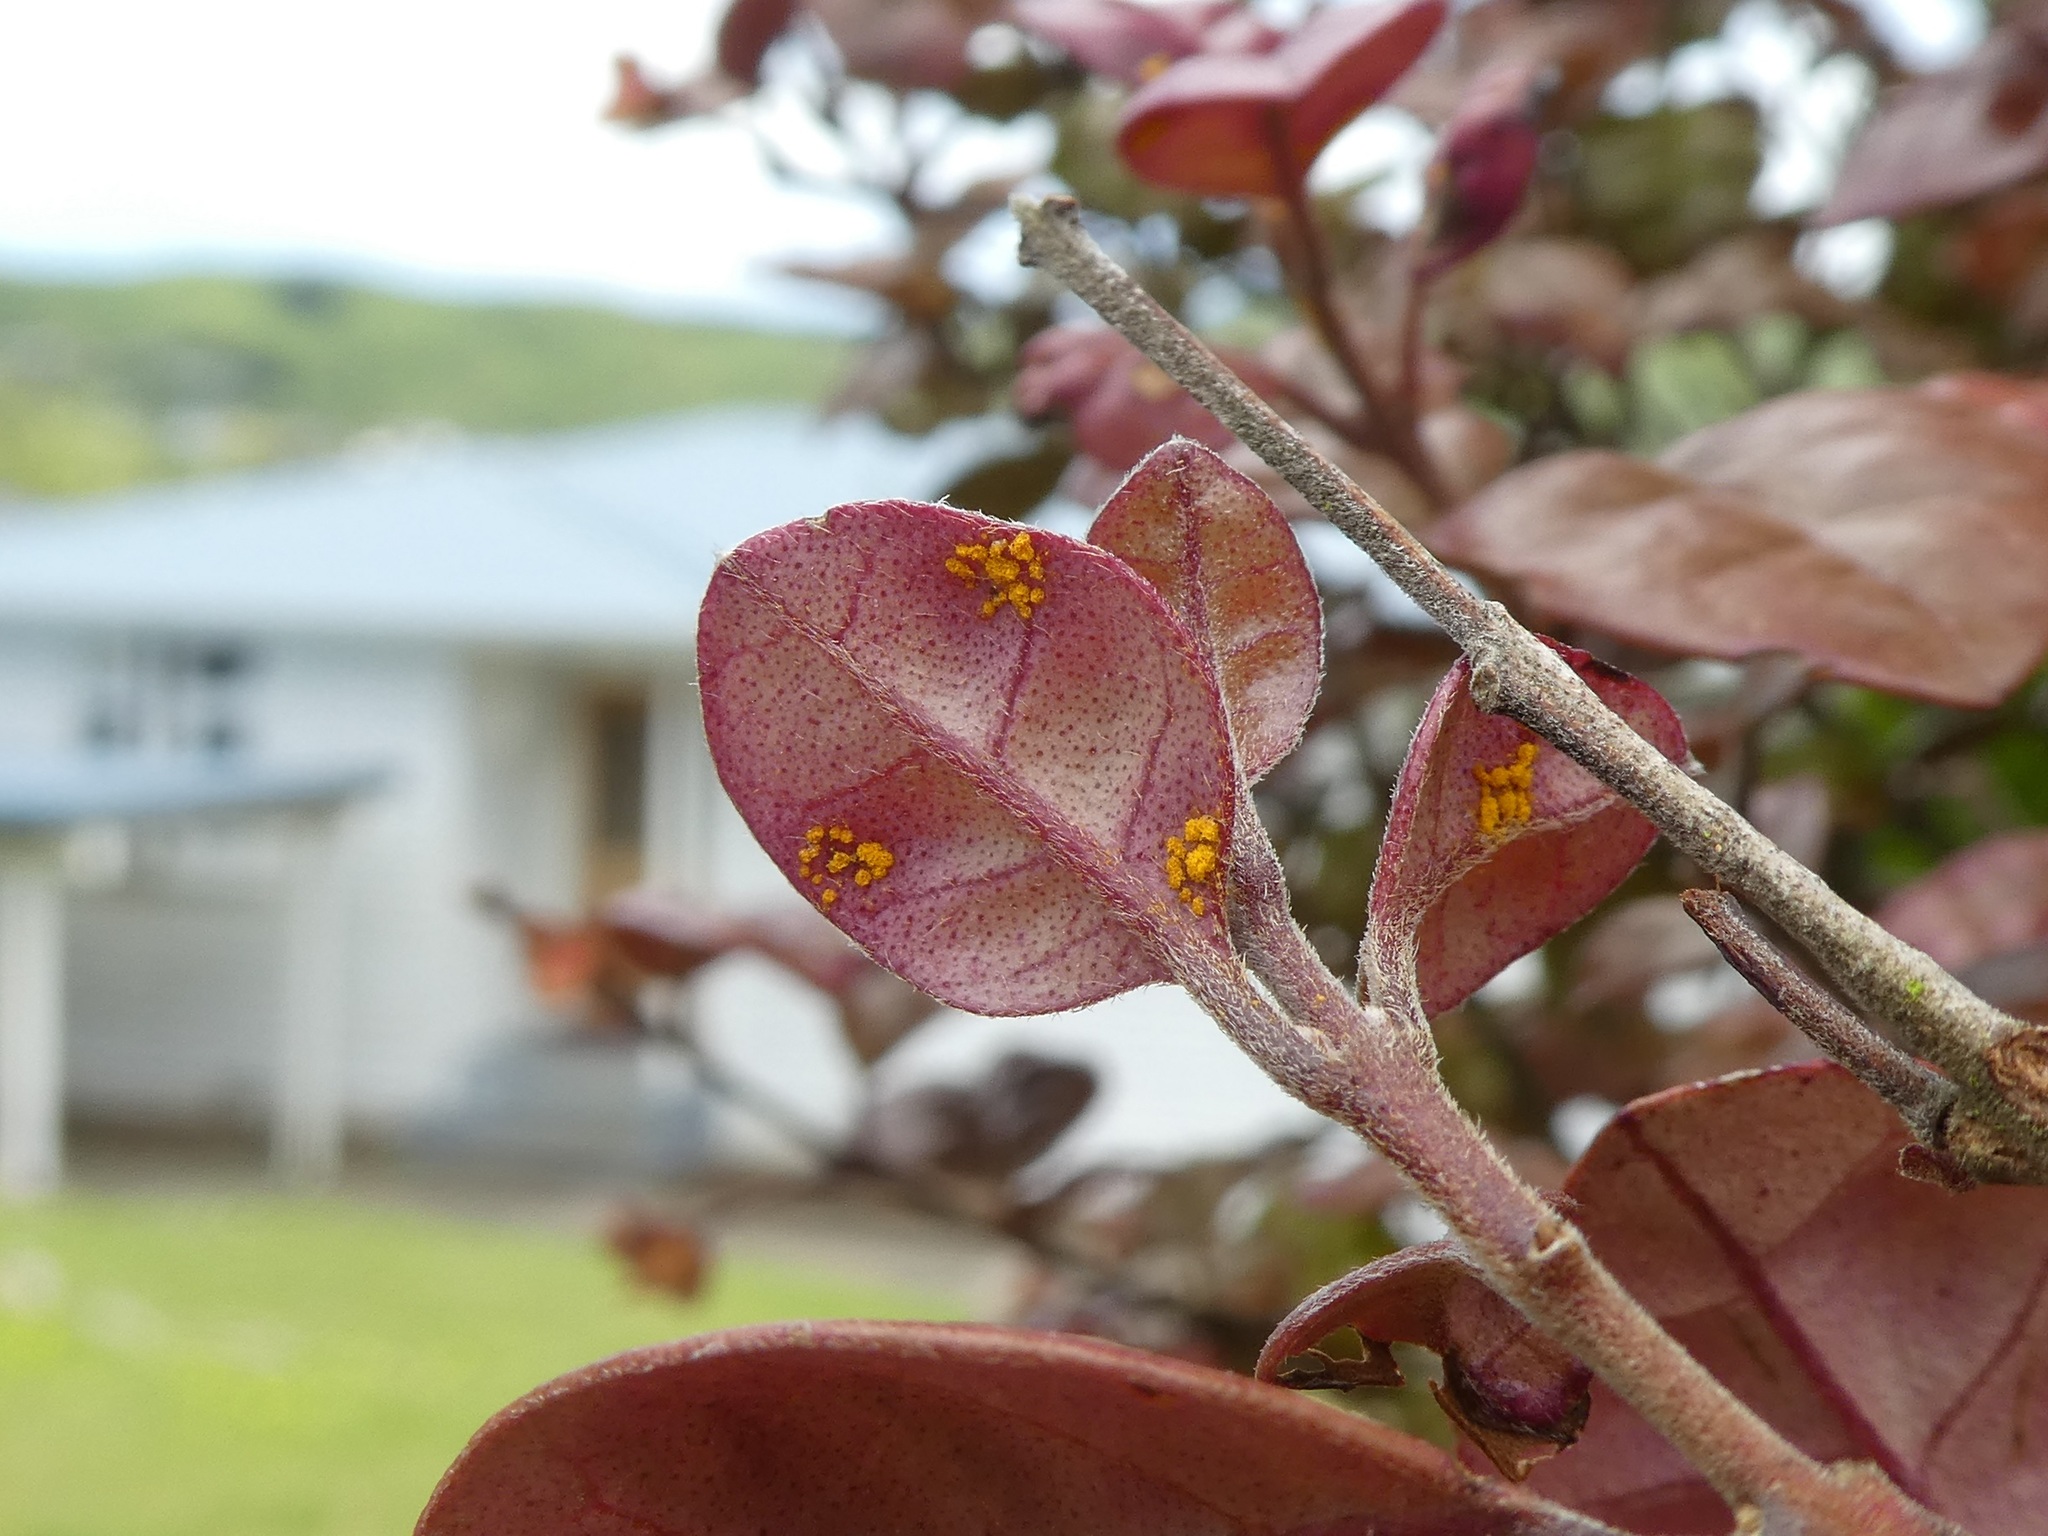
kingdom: Fungi
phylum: Basidiomycota
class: Pucciniomycetes
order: Pucciniales
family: Sphaerophragmiaceae
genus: Austropuccinia
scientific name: Austropuccinia psidii
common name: Myrtle rust
